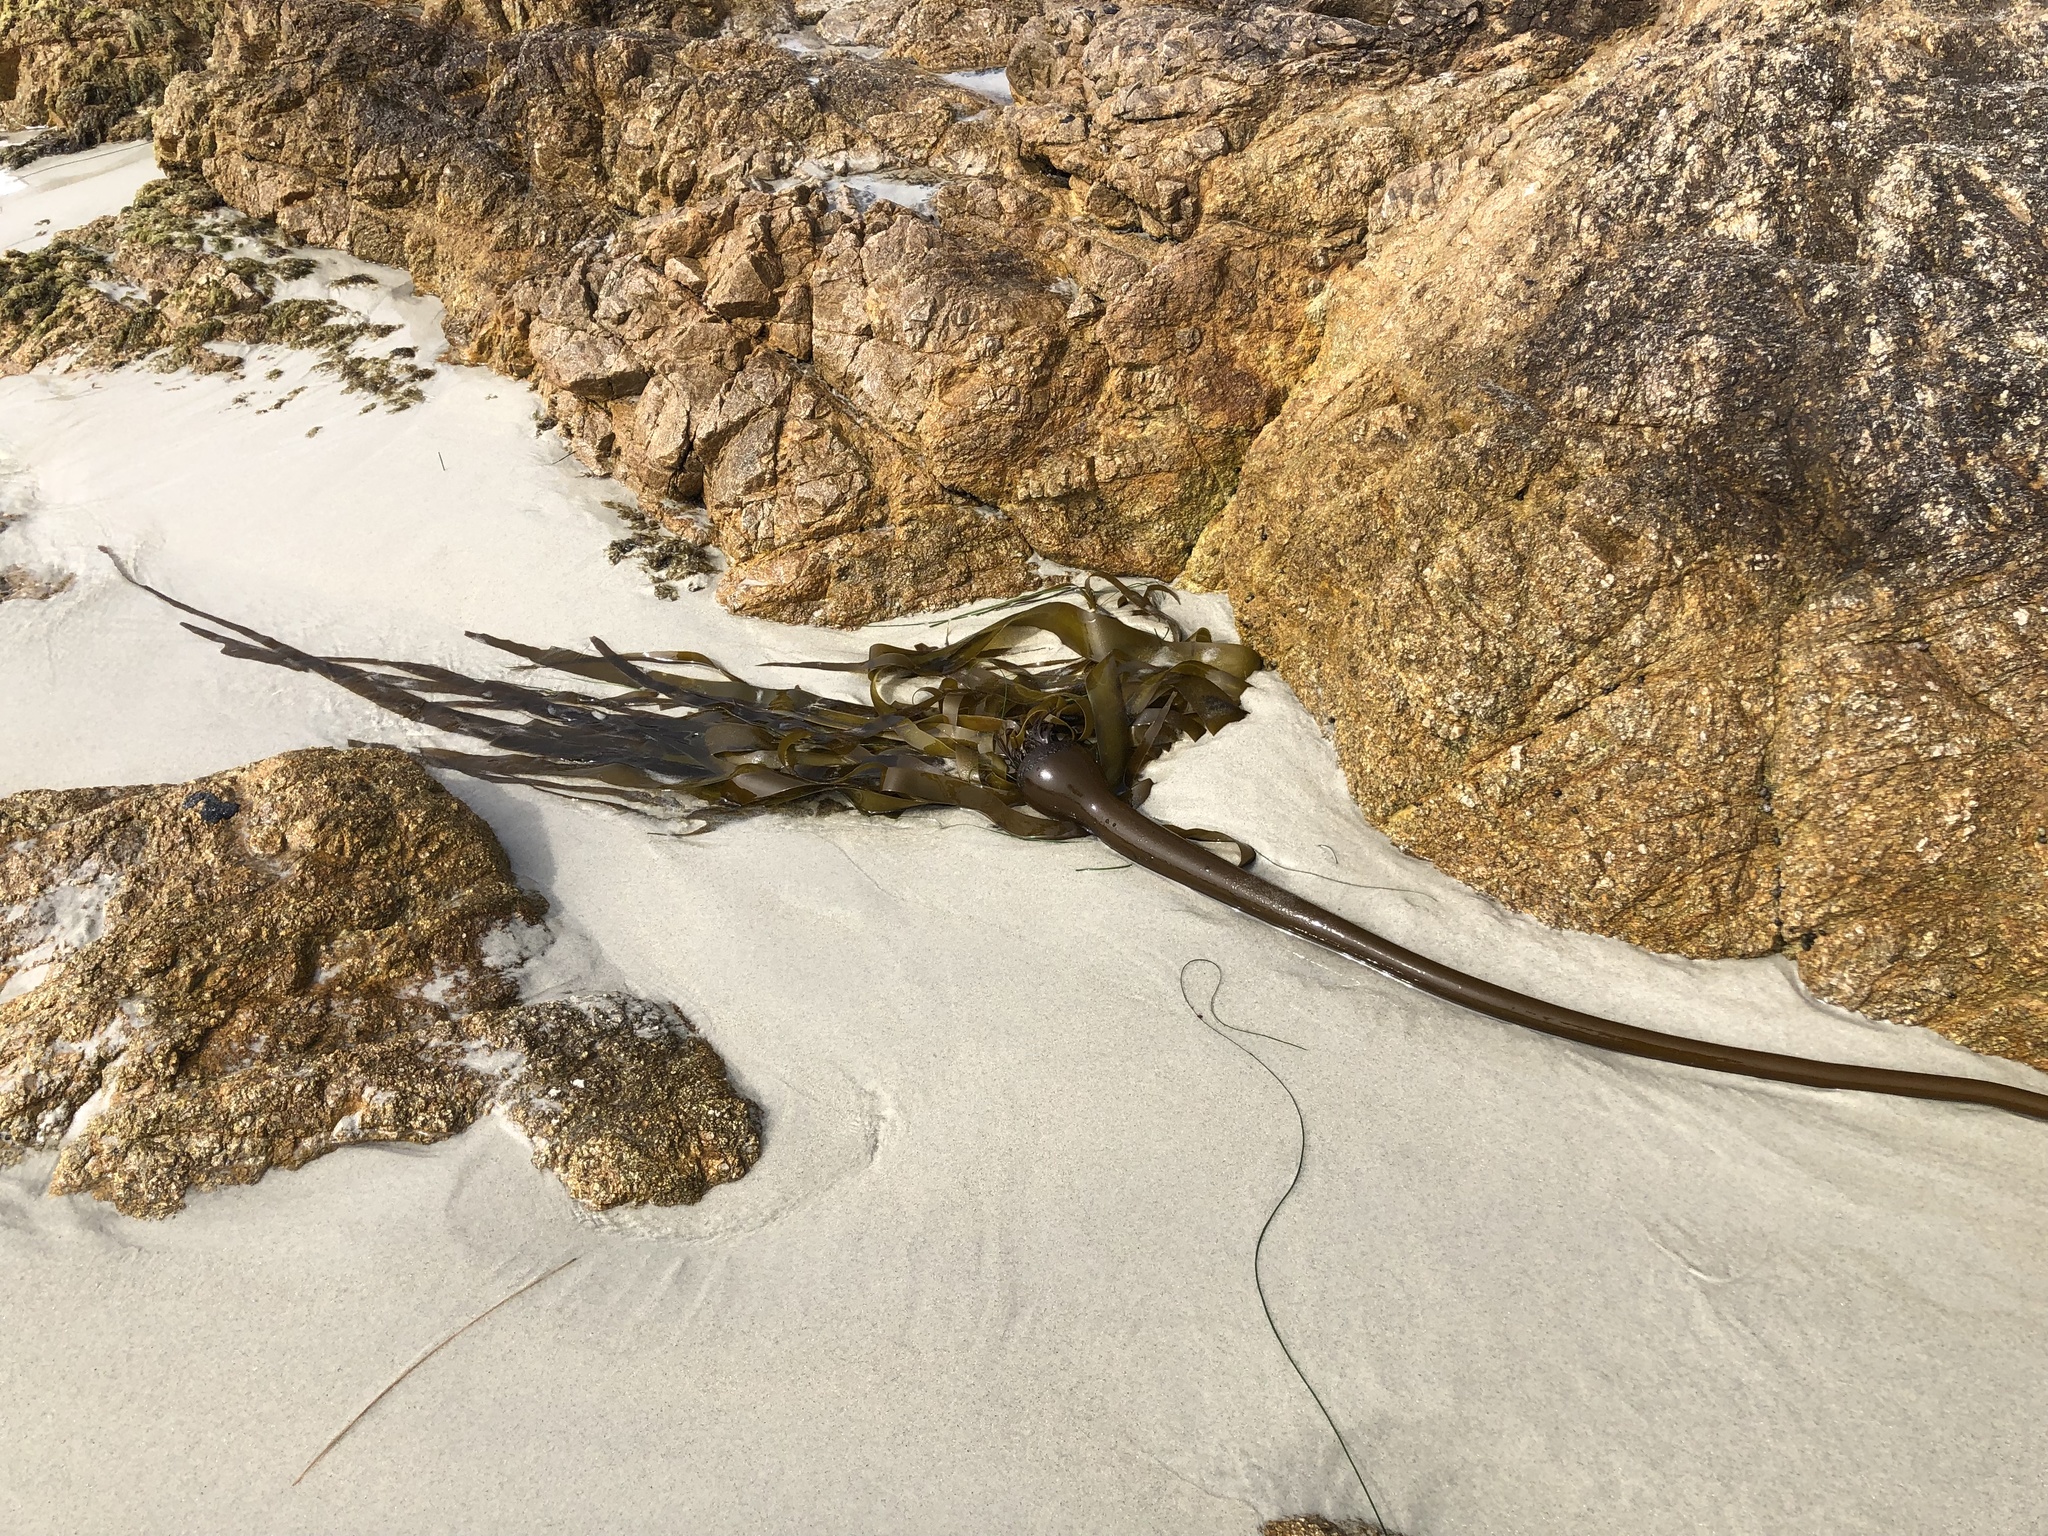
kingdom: Chromista
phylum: Ochrophyta
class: Phaeophyceae
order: Laminariales
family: Laminariaceae
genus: Nereocystis
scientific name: Nereocystis luetkeana
